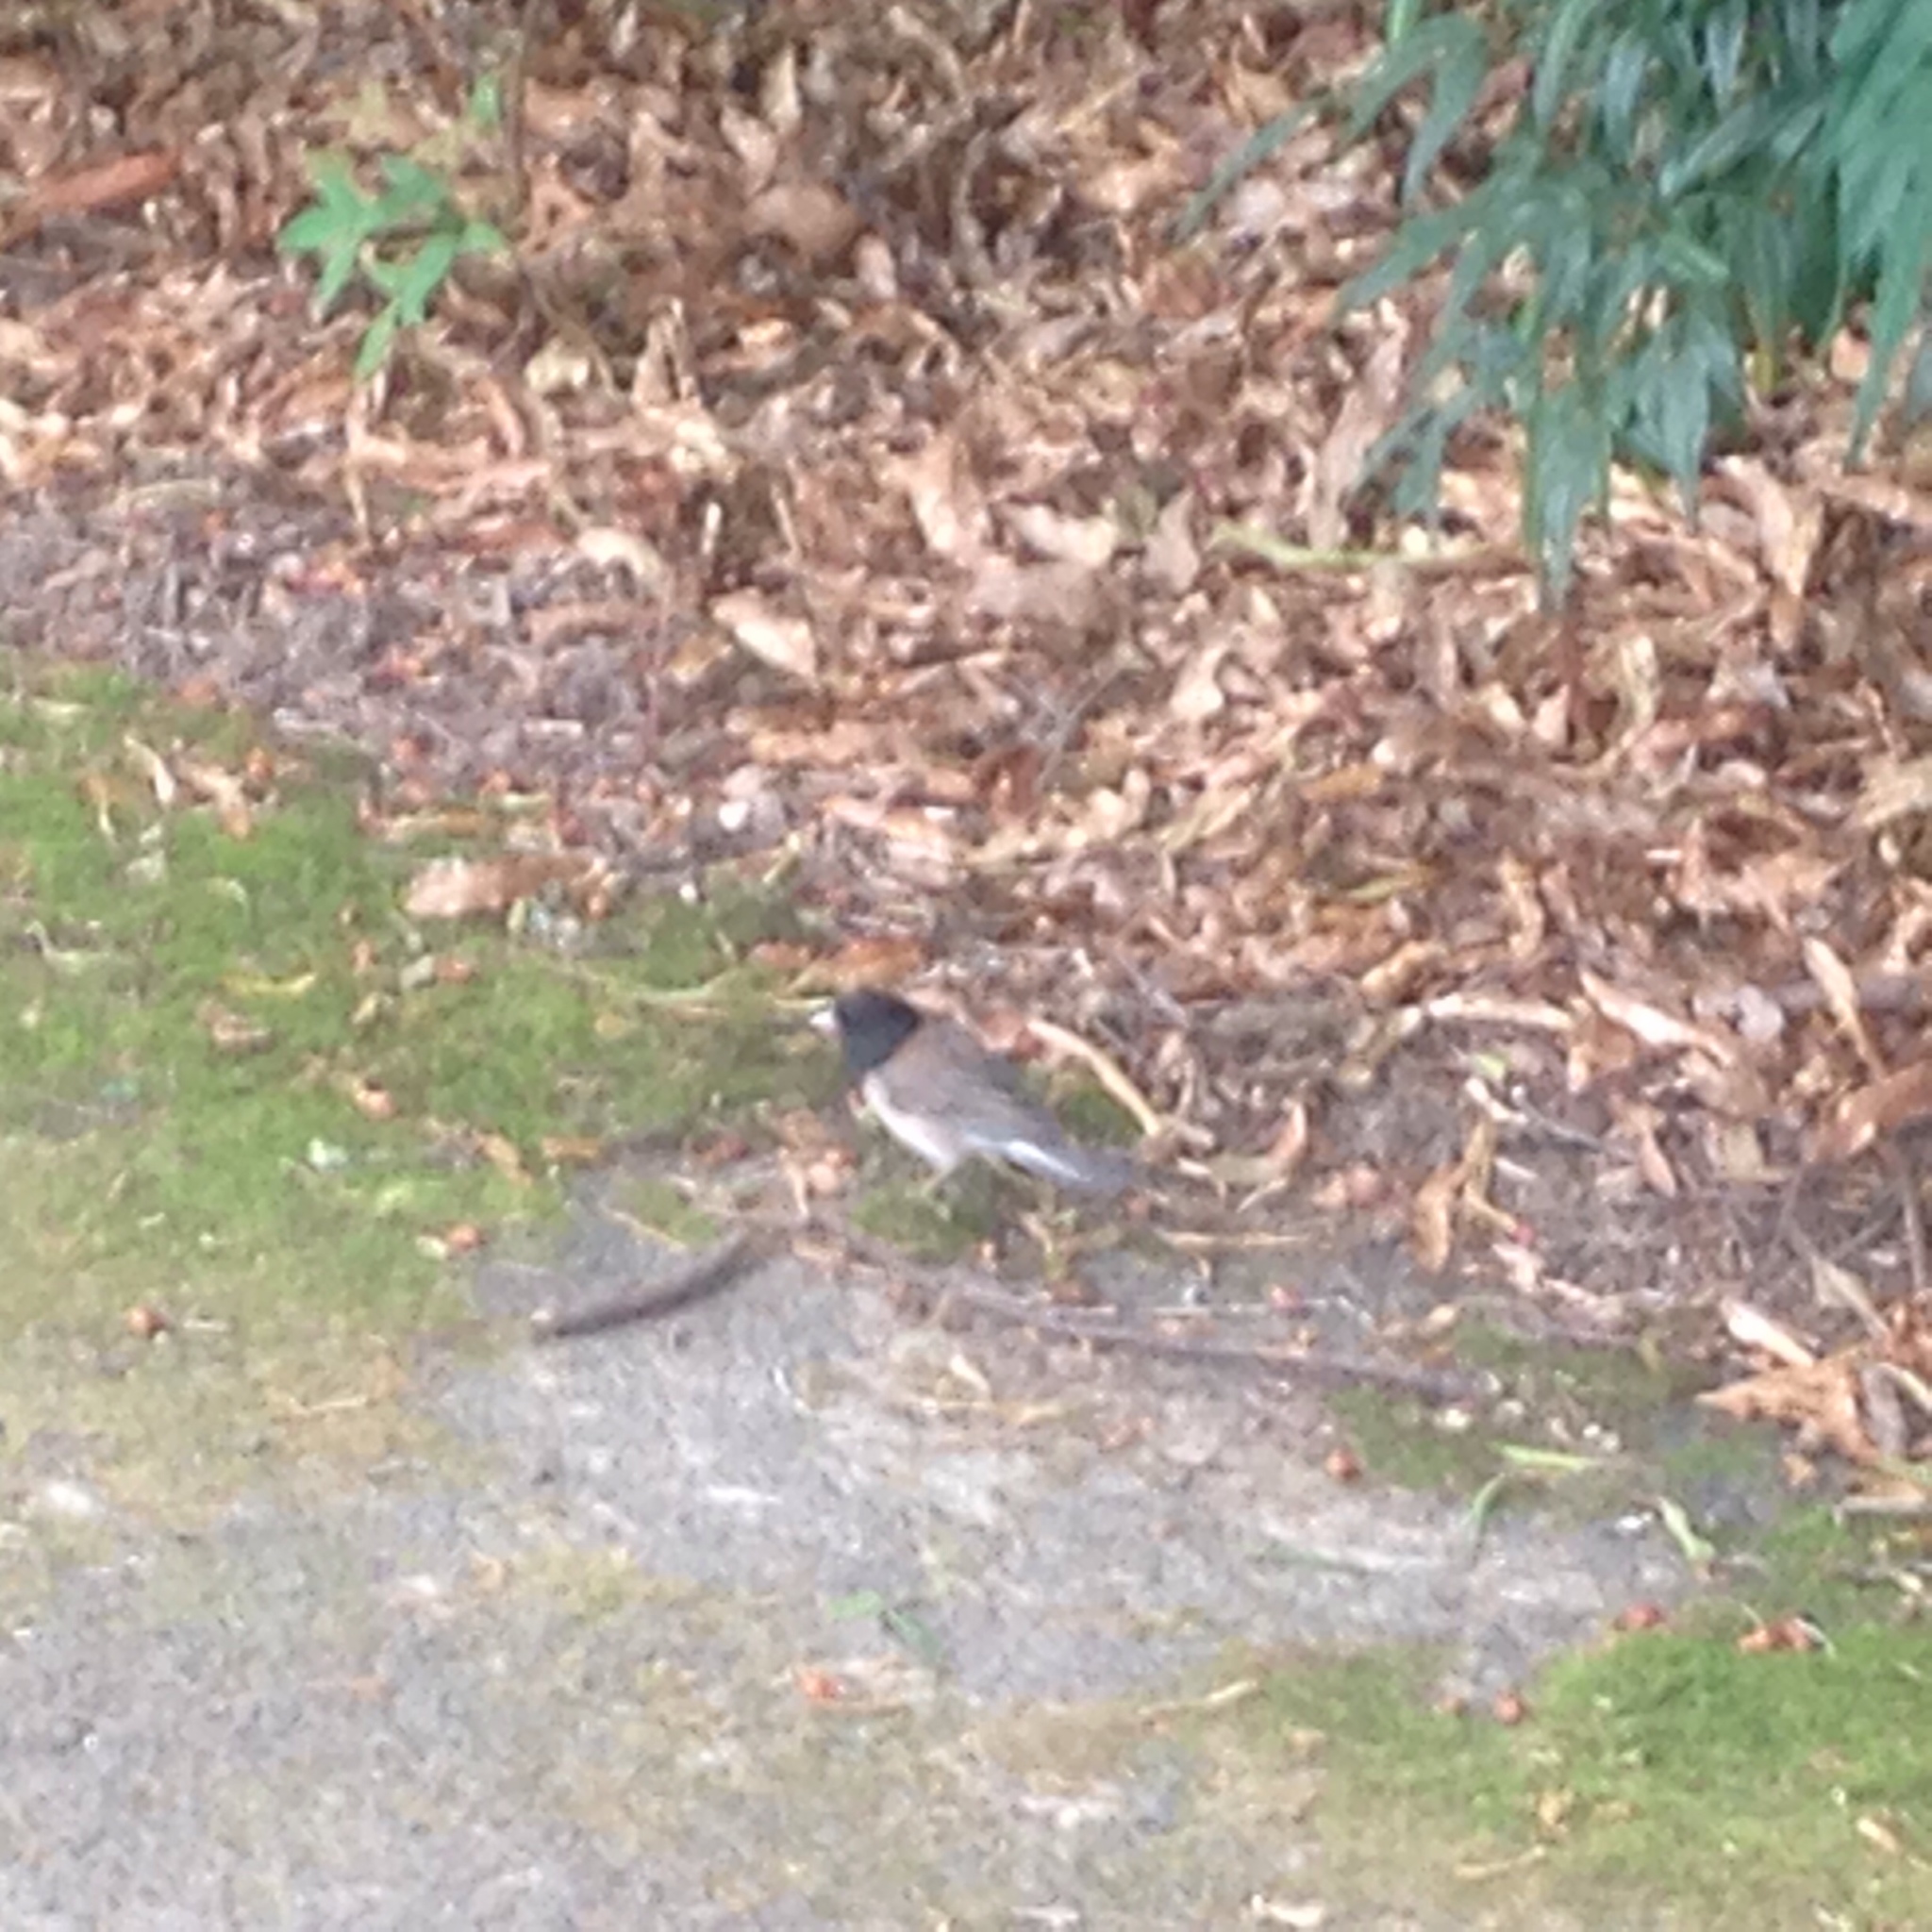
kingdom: Animalia
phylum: Chordata
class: Aves
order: Passeriformes
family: Passerellidae
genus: Junco
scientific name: Junco hyemalis
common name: Dark-eyed junco
